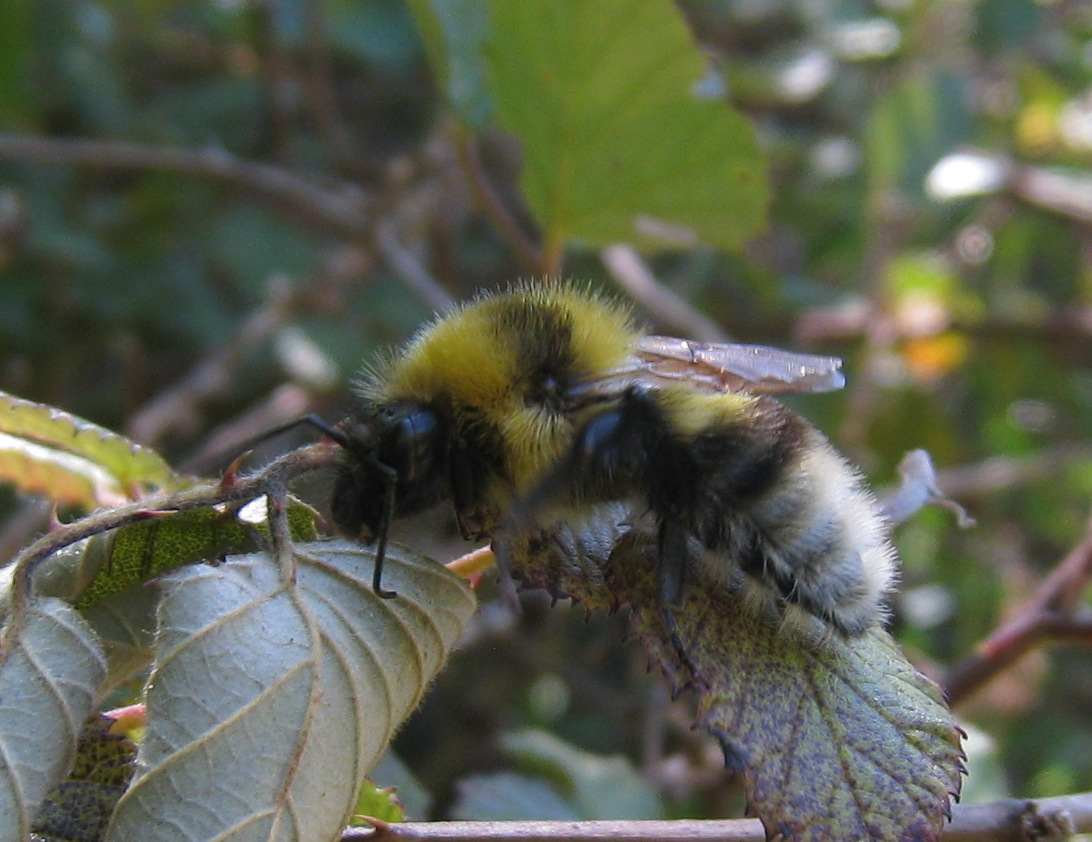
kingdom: Animalia
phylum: Arthropoda
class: Insecta
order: Hymenoptera
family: Apidae
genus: Bombus
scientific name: Bombus
